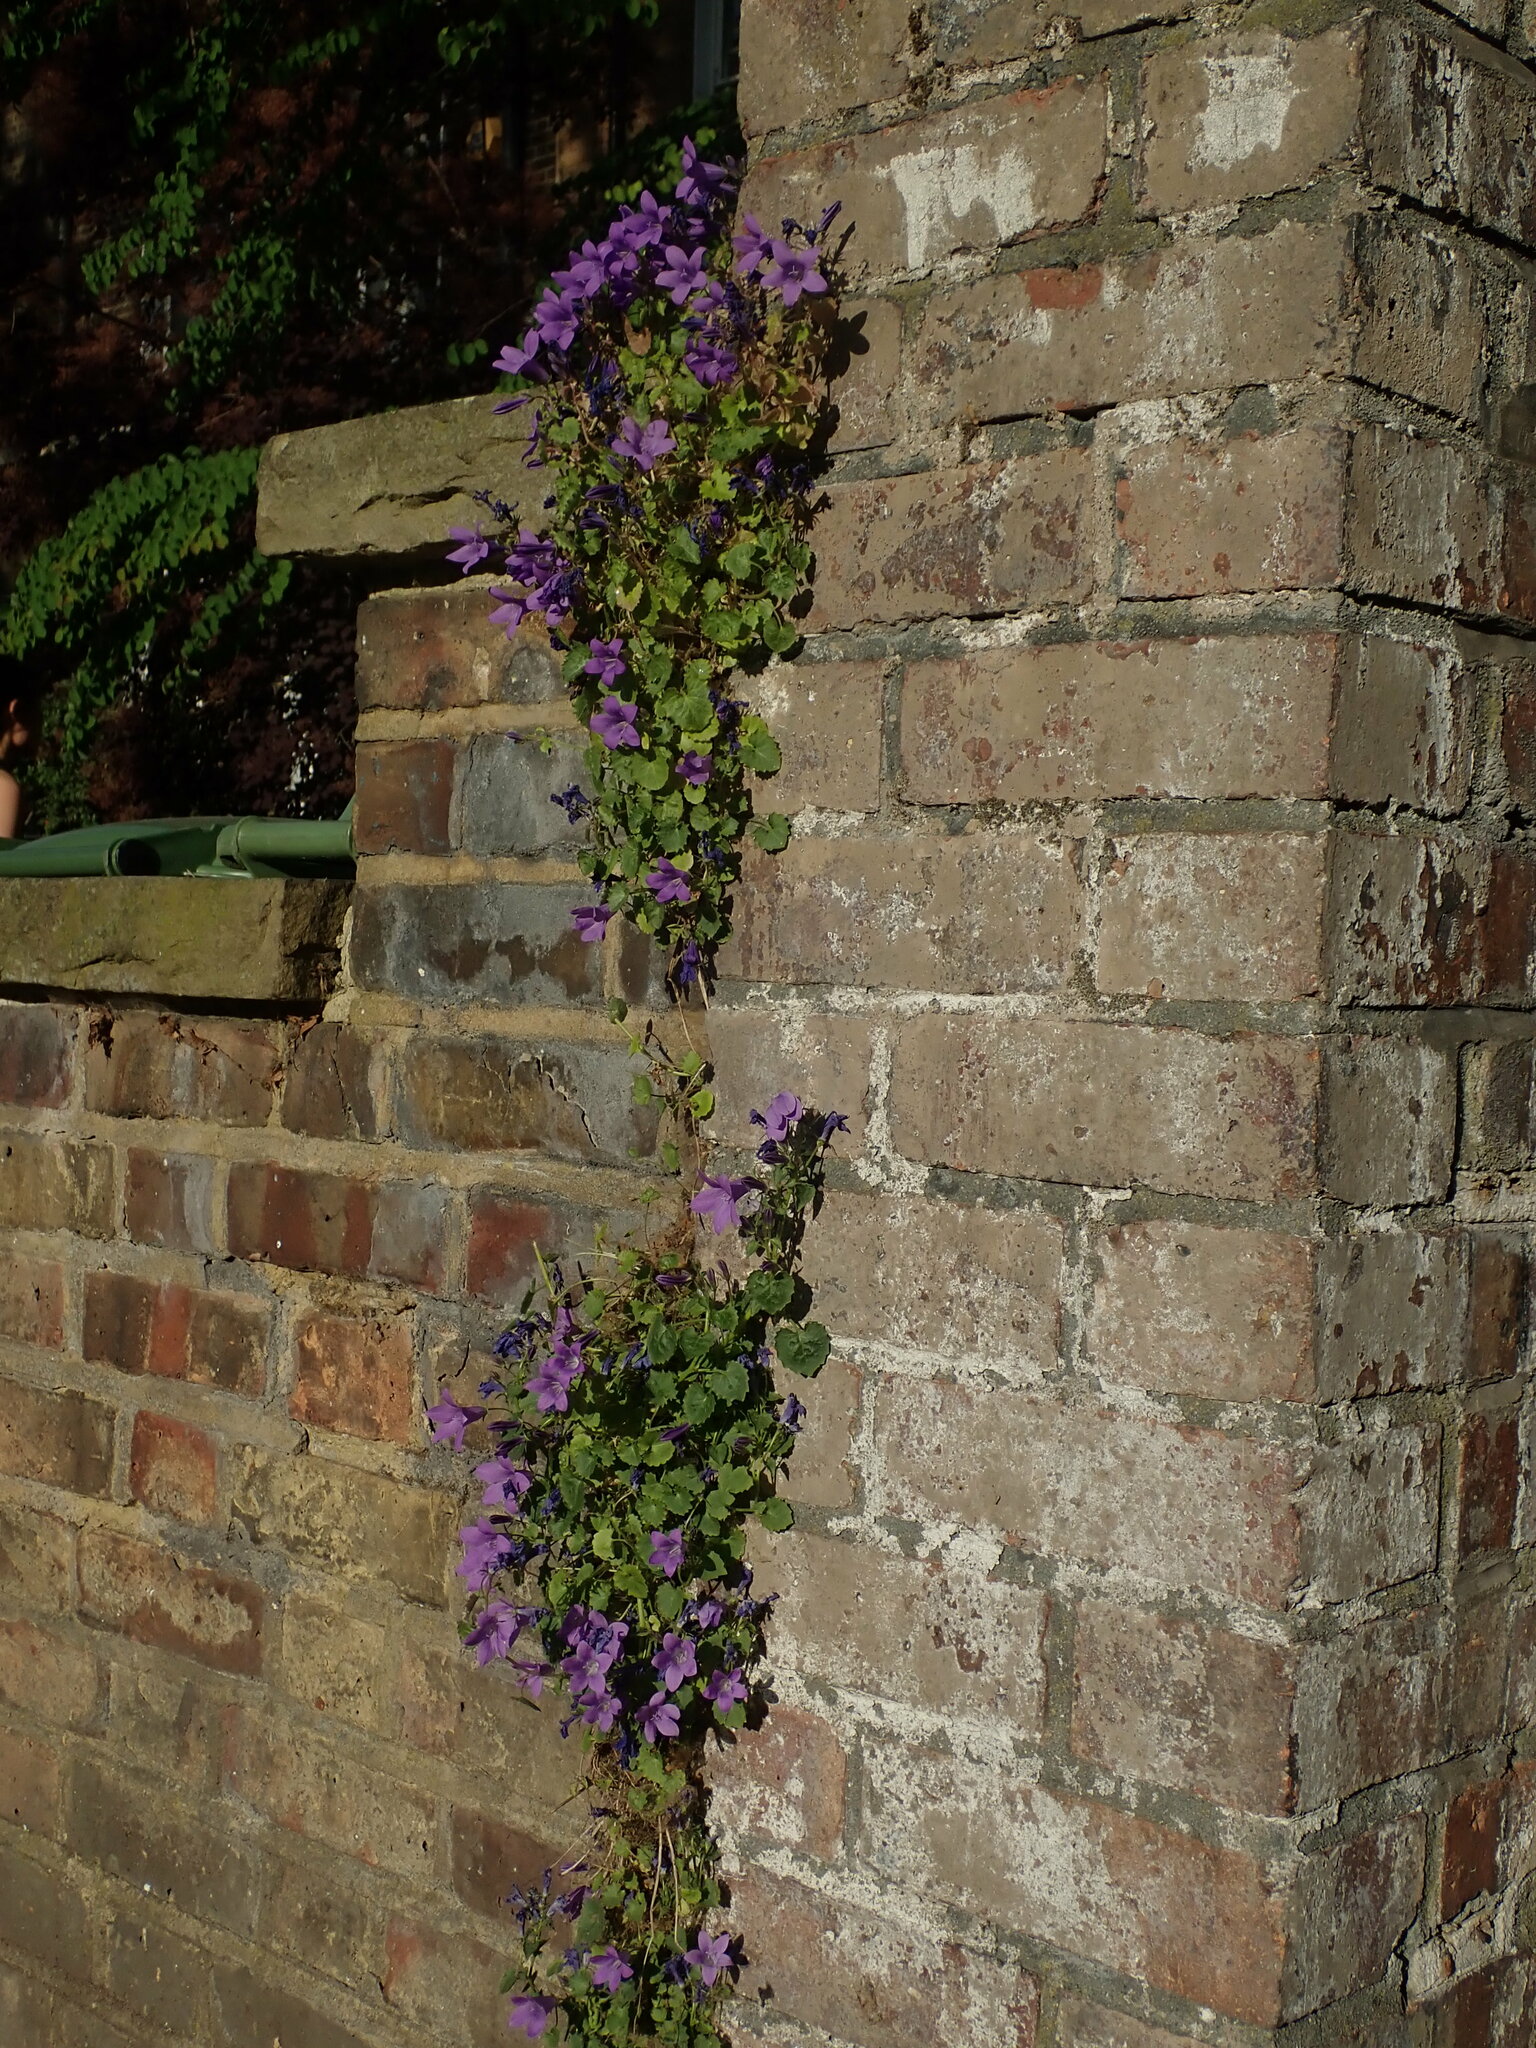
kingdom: Plantae
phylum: Tracheophyta
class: Magnoliopsida
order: Asterales
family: Campanulaceae
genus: Campanula
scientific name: Campanula portenschlagiana
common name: Adria bellflower
